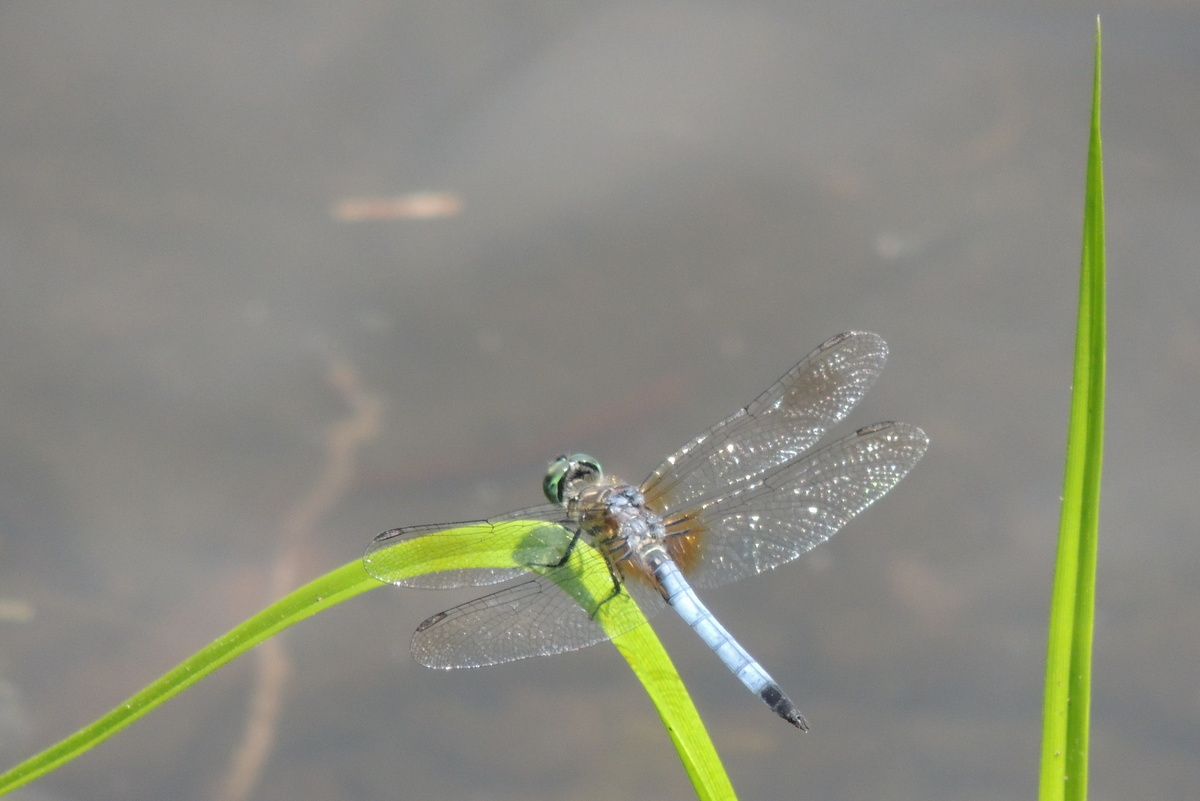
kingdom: Animalia
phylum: Arthropoda
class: Insecta
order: Odonata
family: Libellulidae
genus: Pachydiplax
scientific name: Pachydiplax longipennis
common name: Blue dasher
